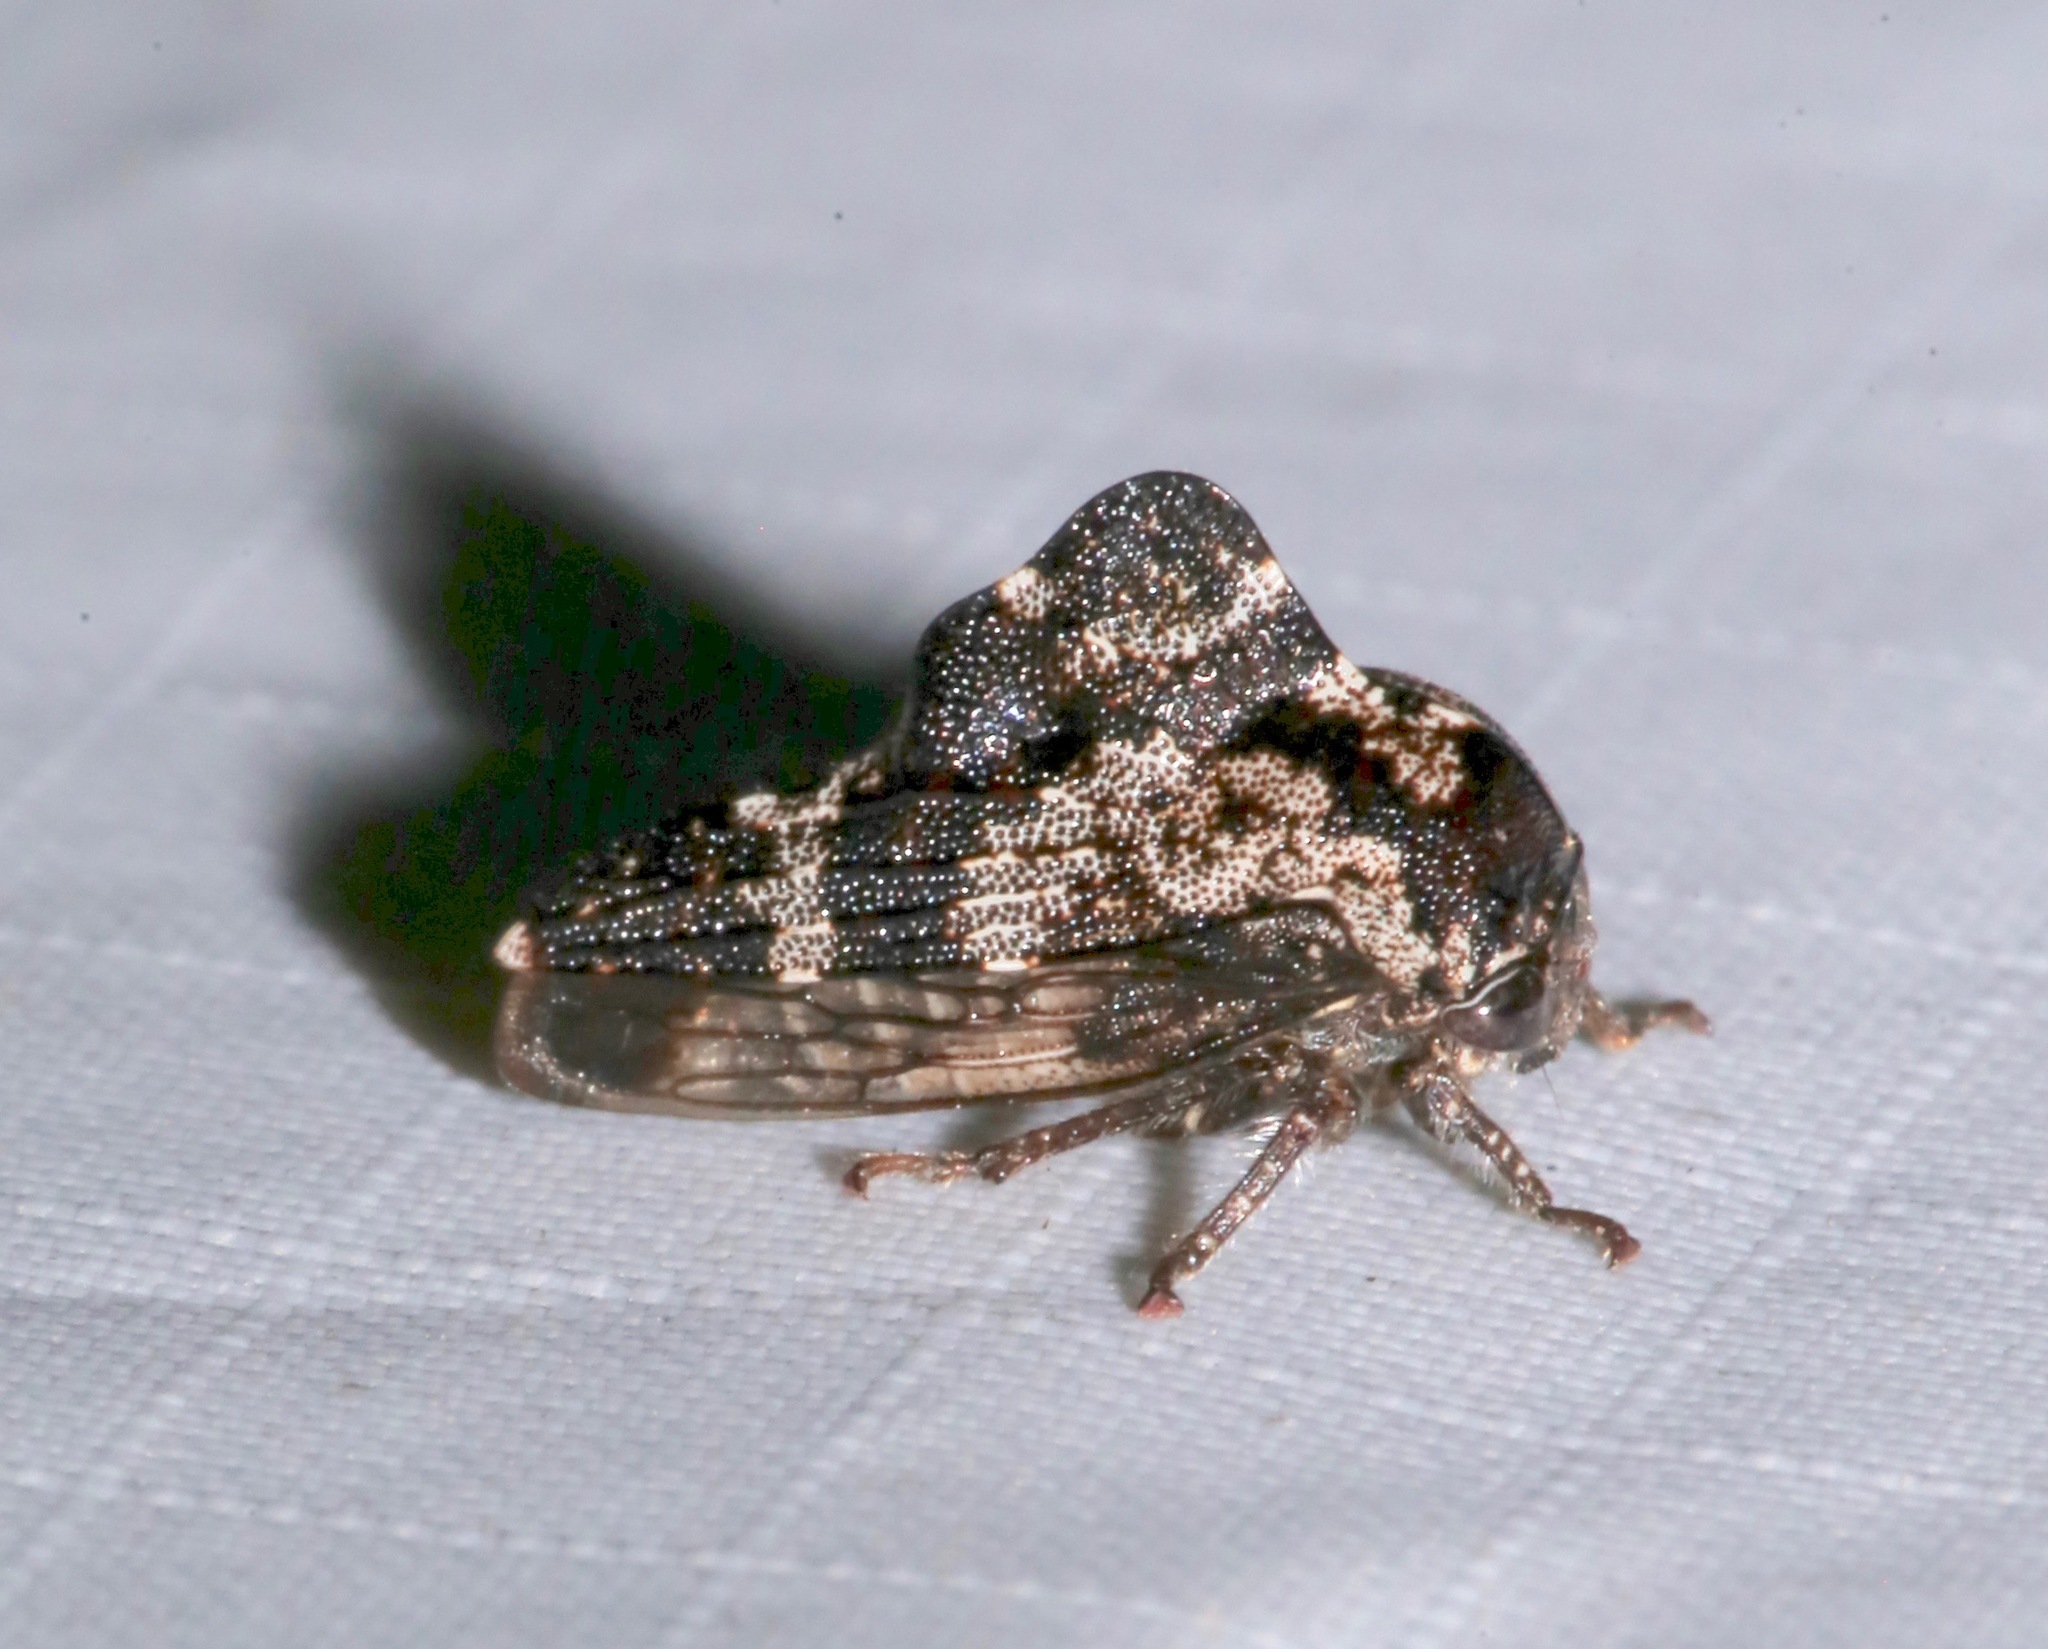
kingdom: Animalia
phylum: Arthropoda
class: Insecta
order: Hemiptera
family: Membracidae
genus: Heliria
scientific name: Heliria sinuata
